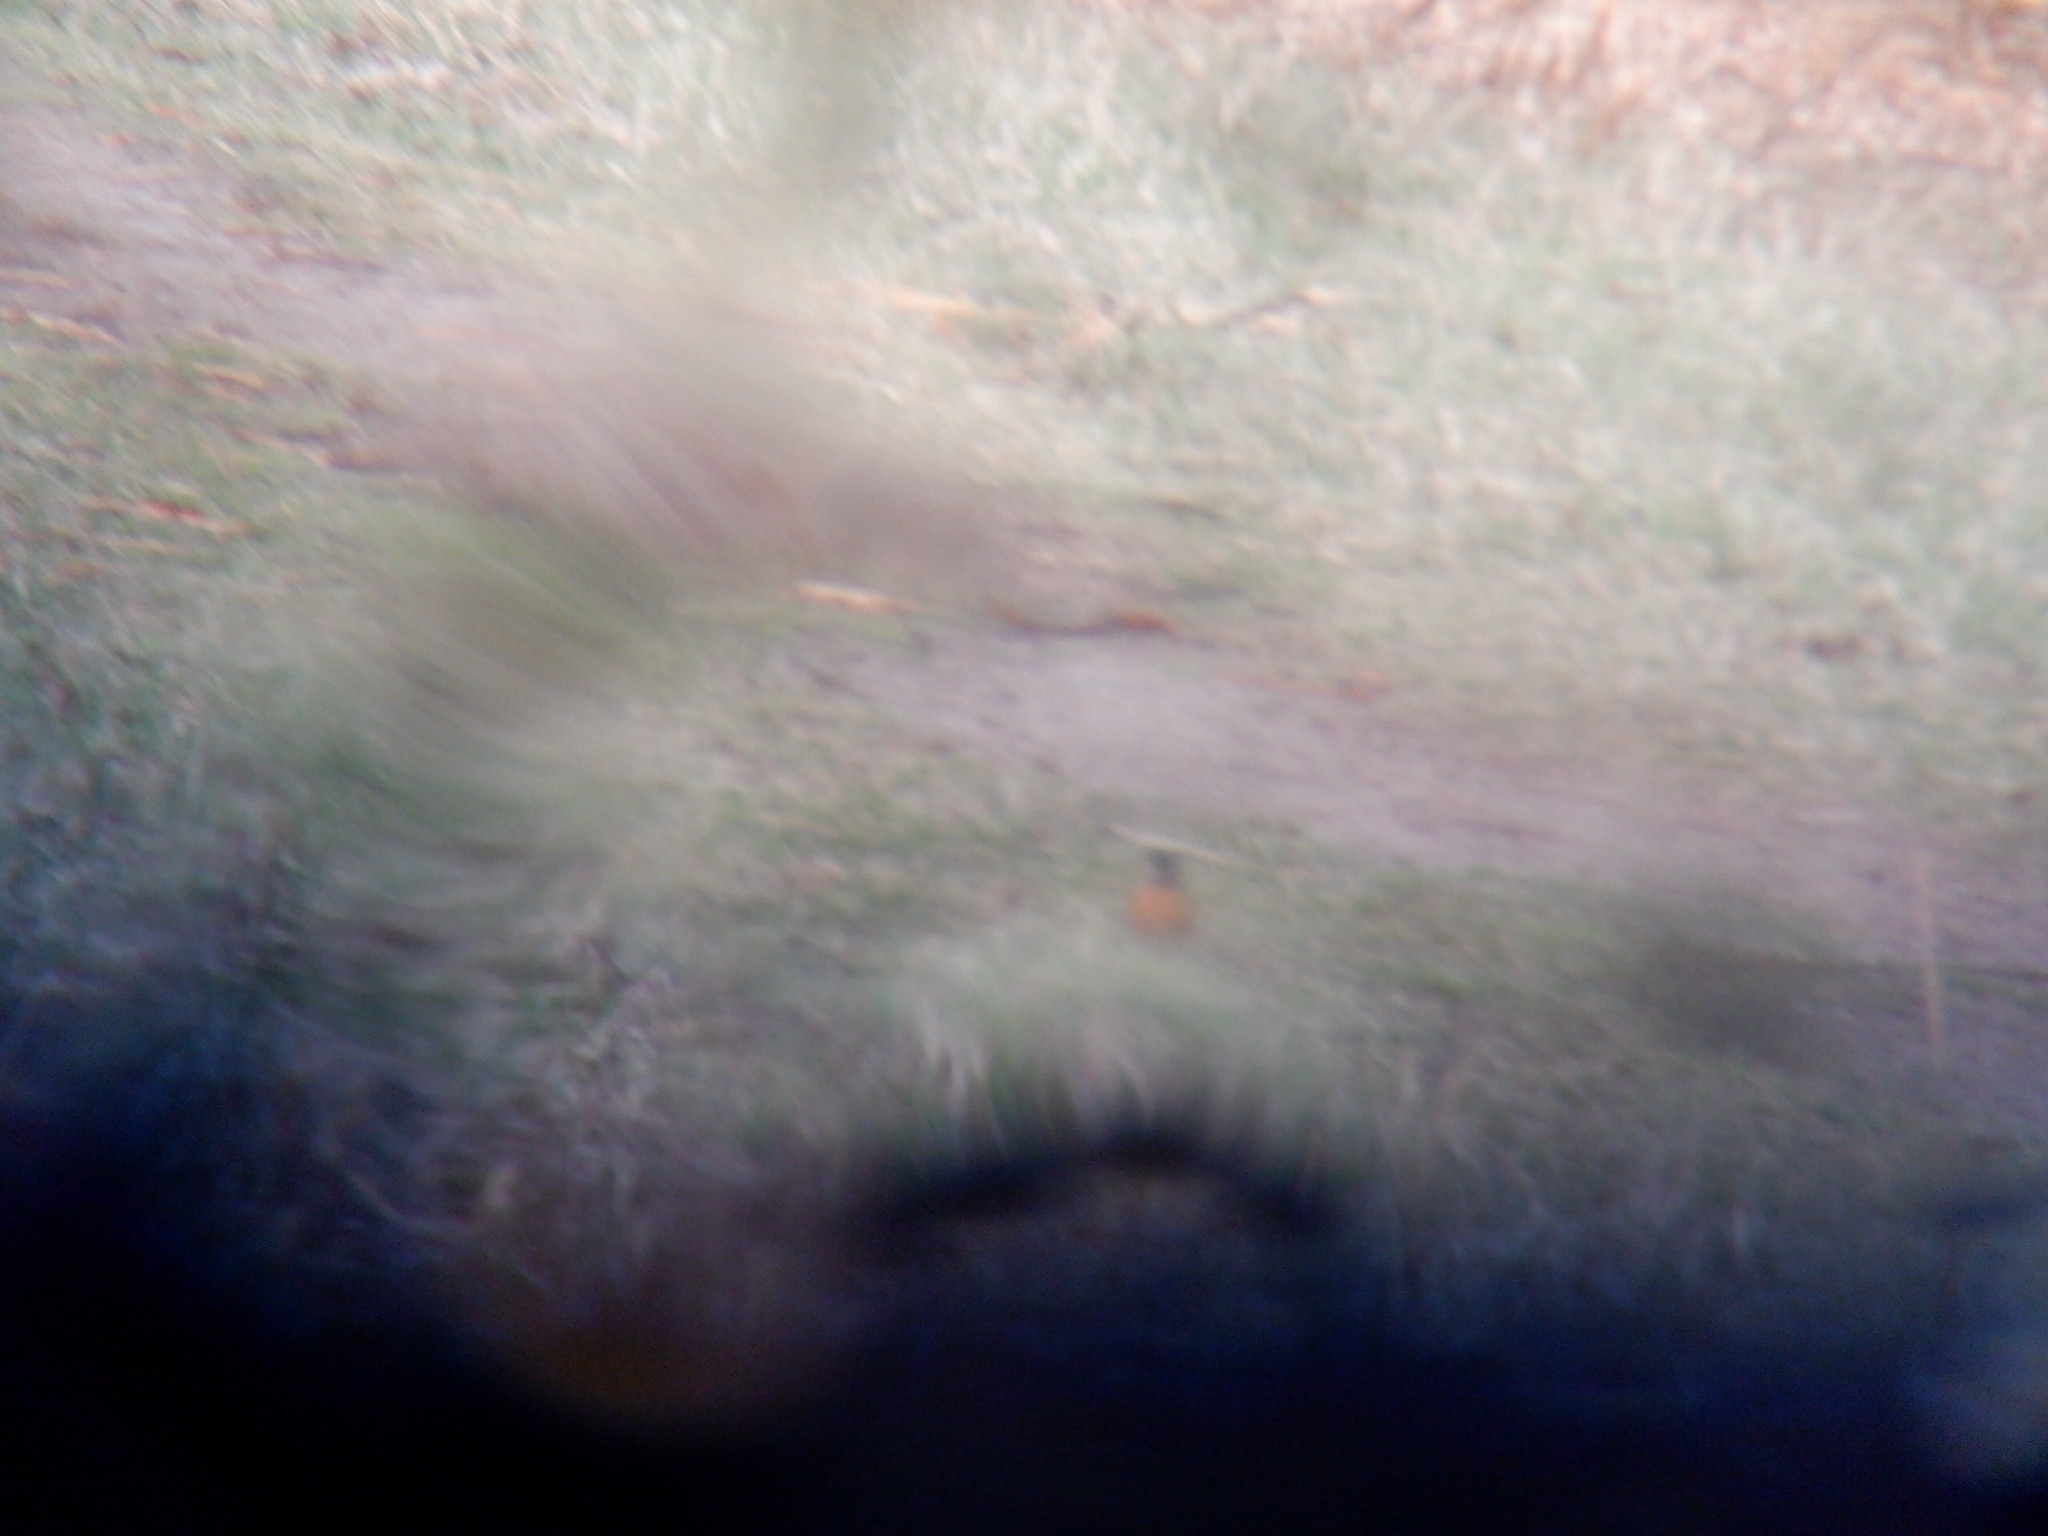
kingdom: Animalia
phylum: Chordata
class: Aves
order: Passeriformes
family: Turdidae
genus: Turdus
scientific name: Turdus migratorius
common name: American robin
